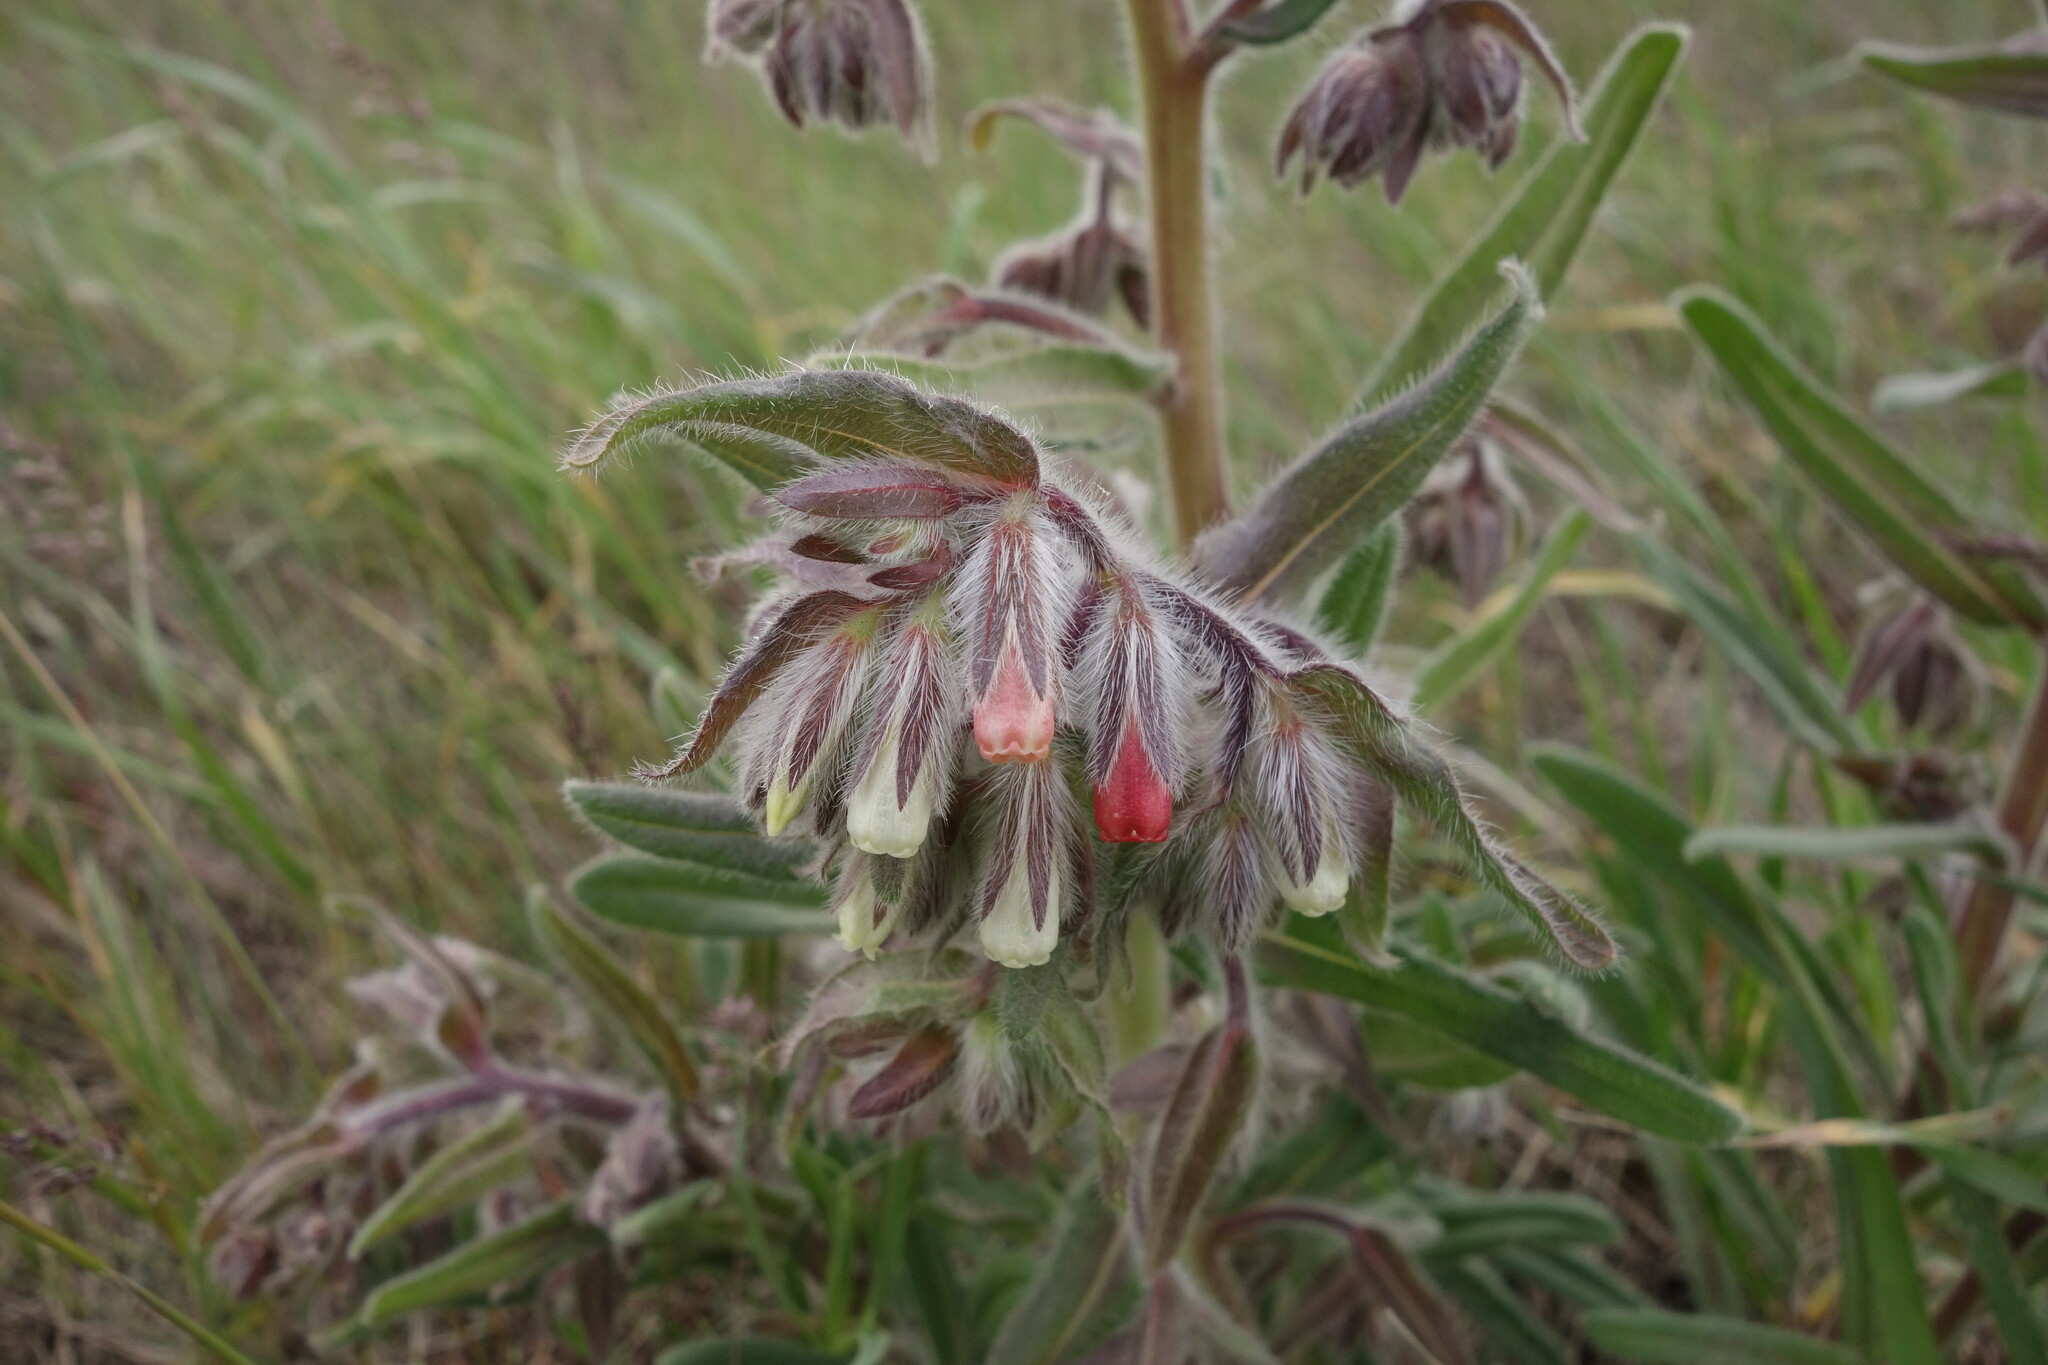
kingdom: Plantae
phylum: Tracheophyta
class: Magnoliopsida
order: Boraginales
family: Boraginaceae
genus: Onosma
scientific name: Onosma polychroma
